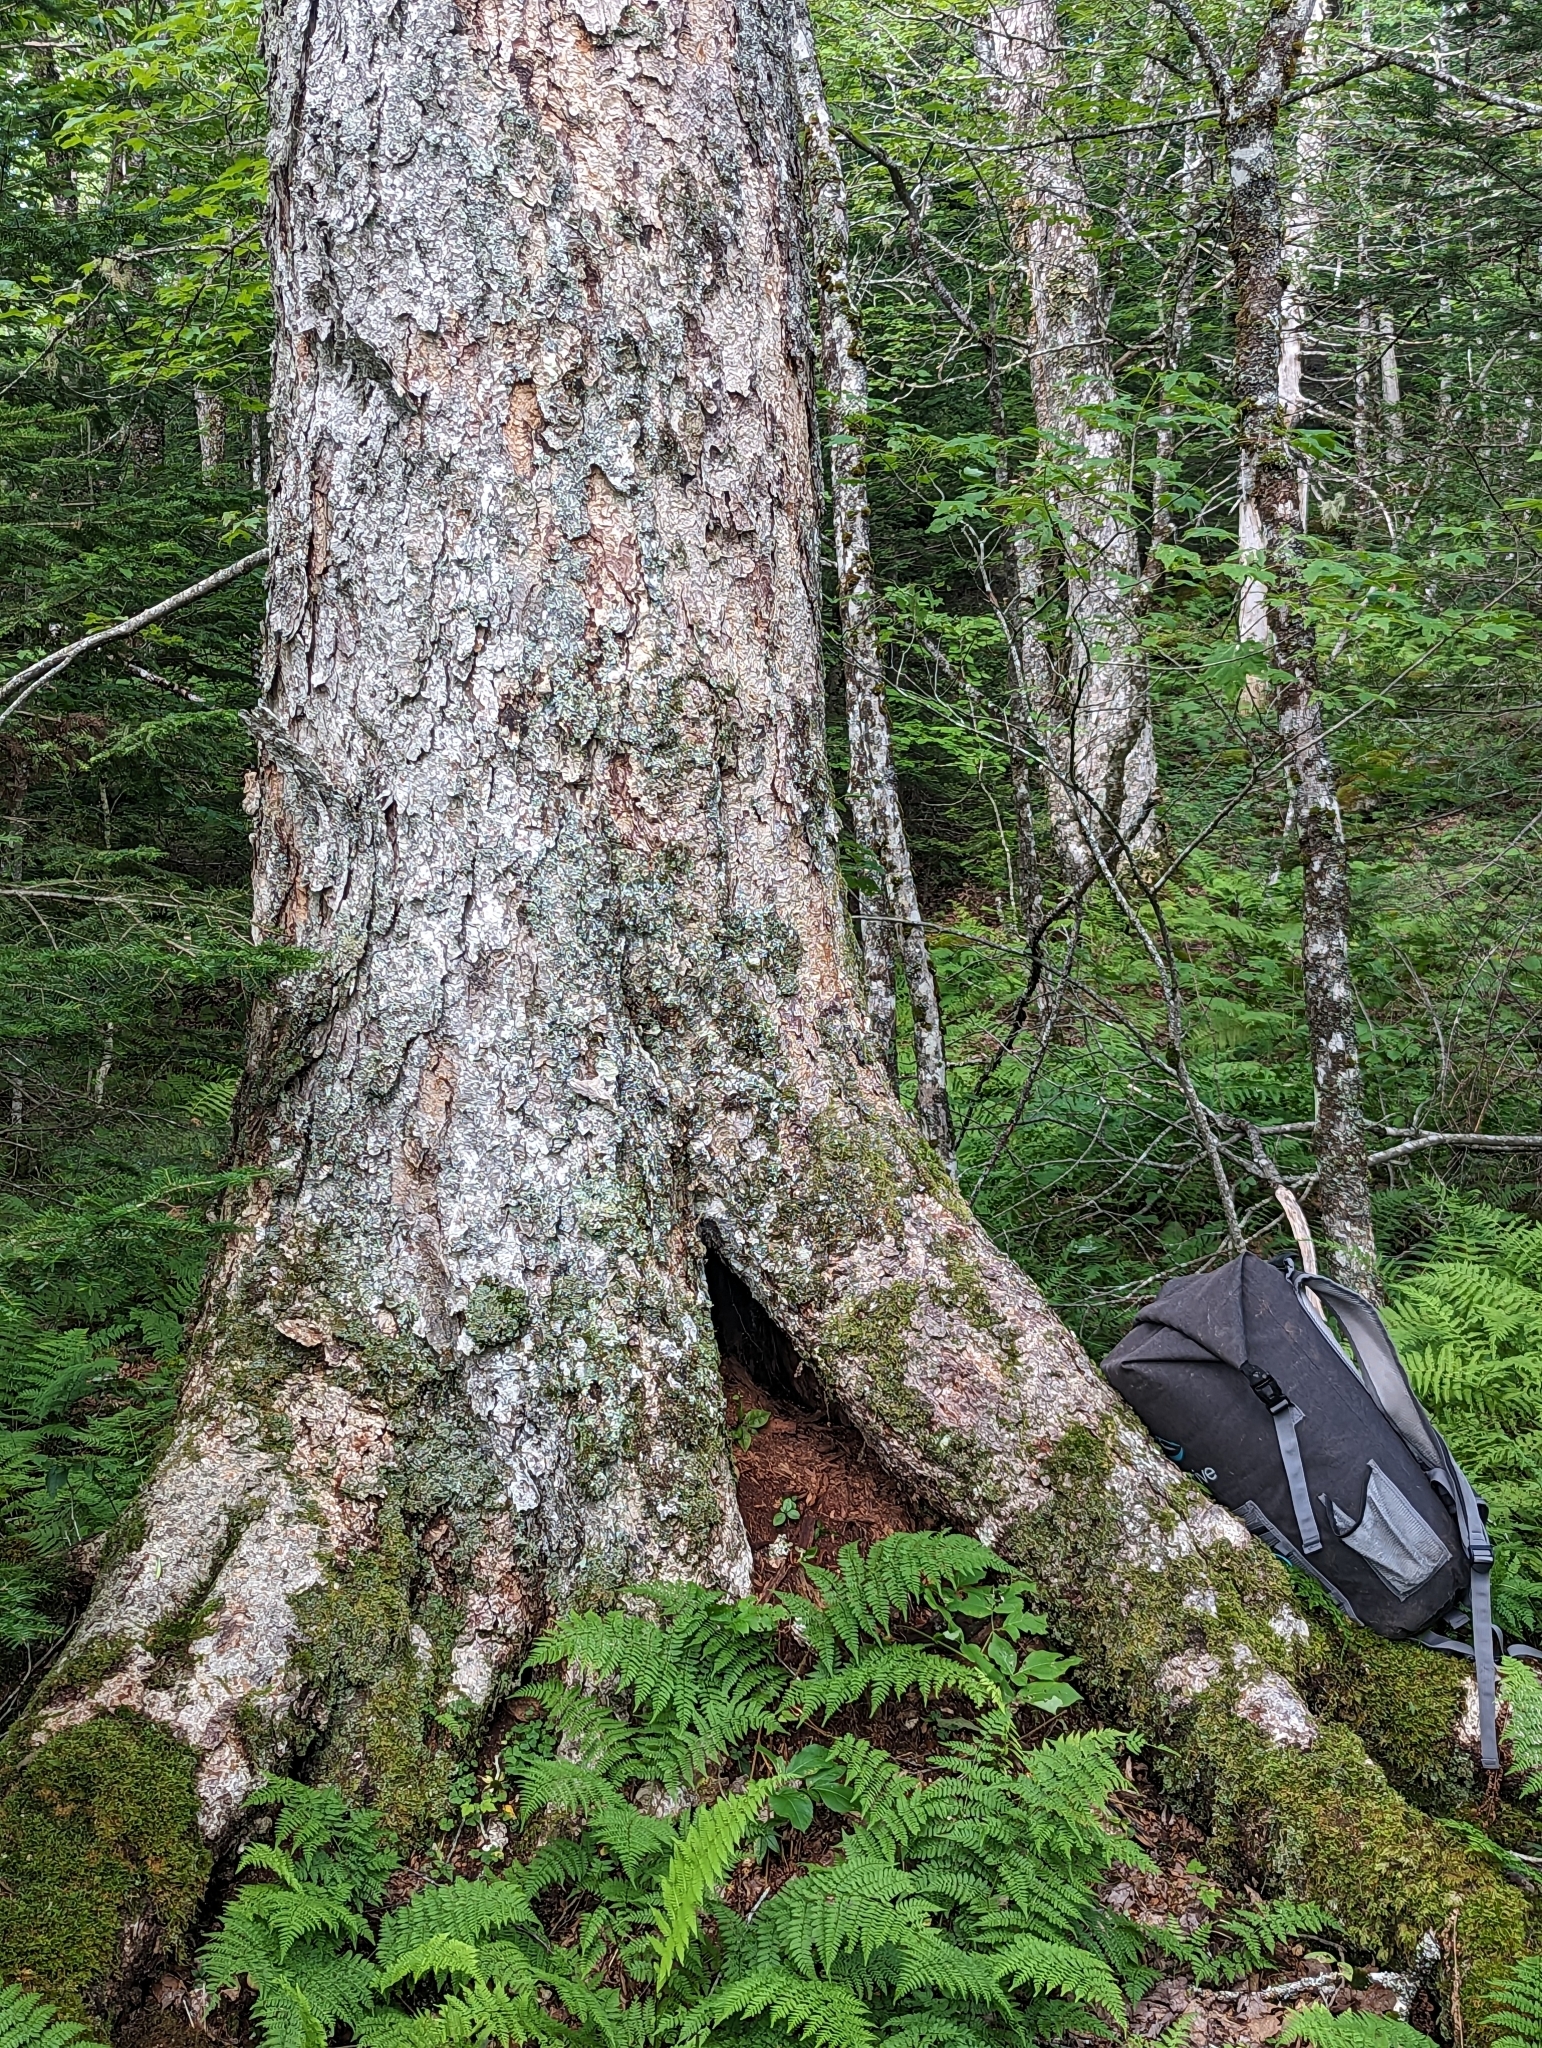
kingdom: Plantae
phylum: Tracheophyta
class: Magnoliopsida
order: Fagales
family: Betulaceae
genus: Betula
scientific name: Betula alleghaniensis
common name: Yellow birch
